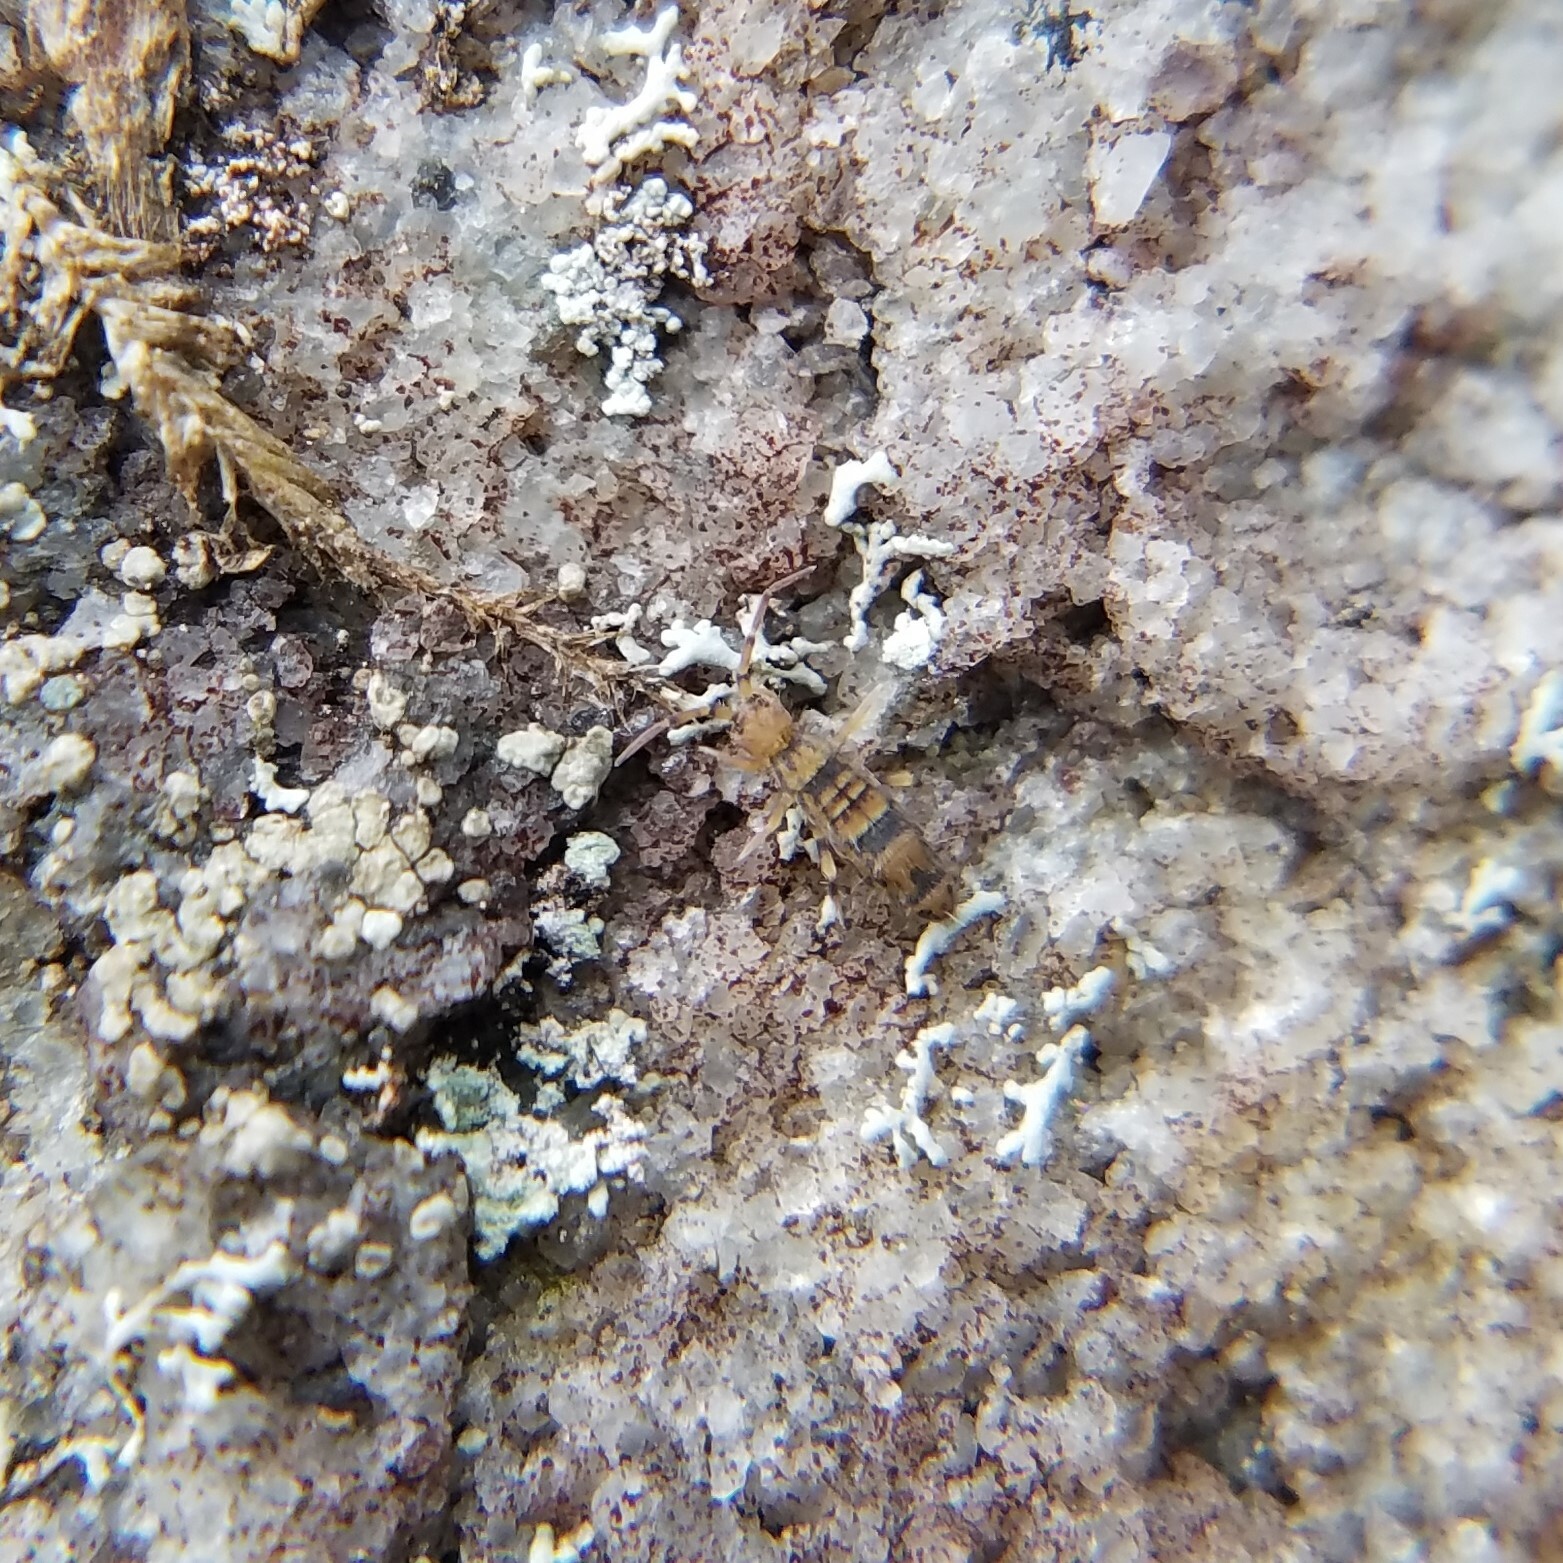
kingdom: Animalia
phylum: Arthropoda
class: Collembola
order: Entomobryomorpha
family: Orchesellidae
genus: Orchesella
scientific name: Orchesella celsa
